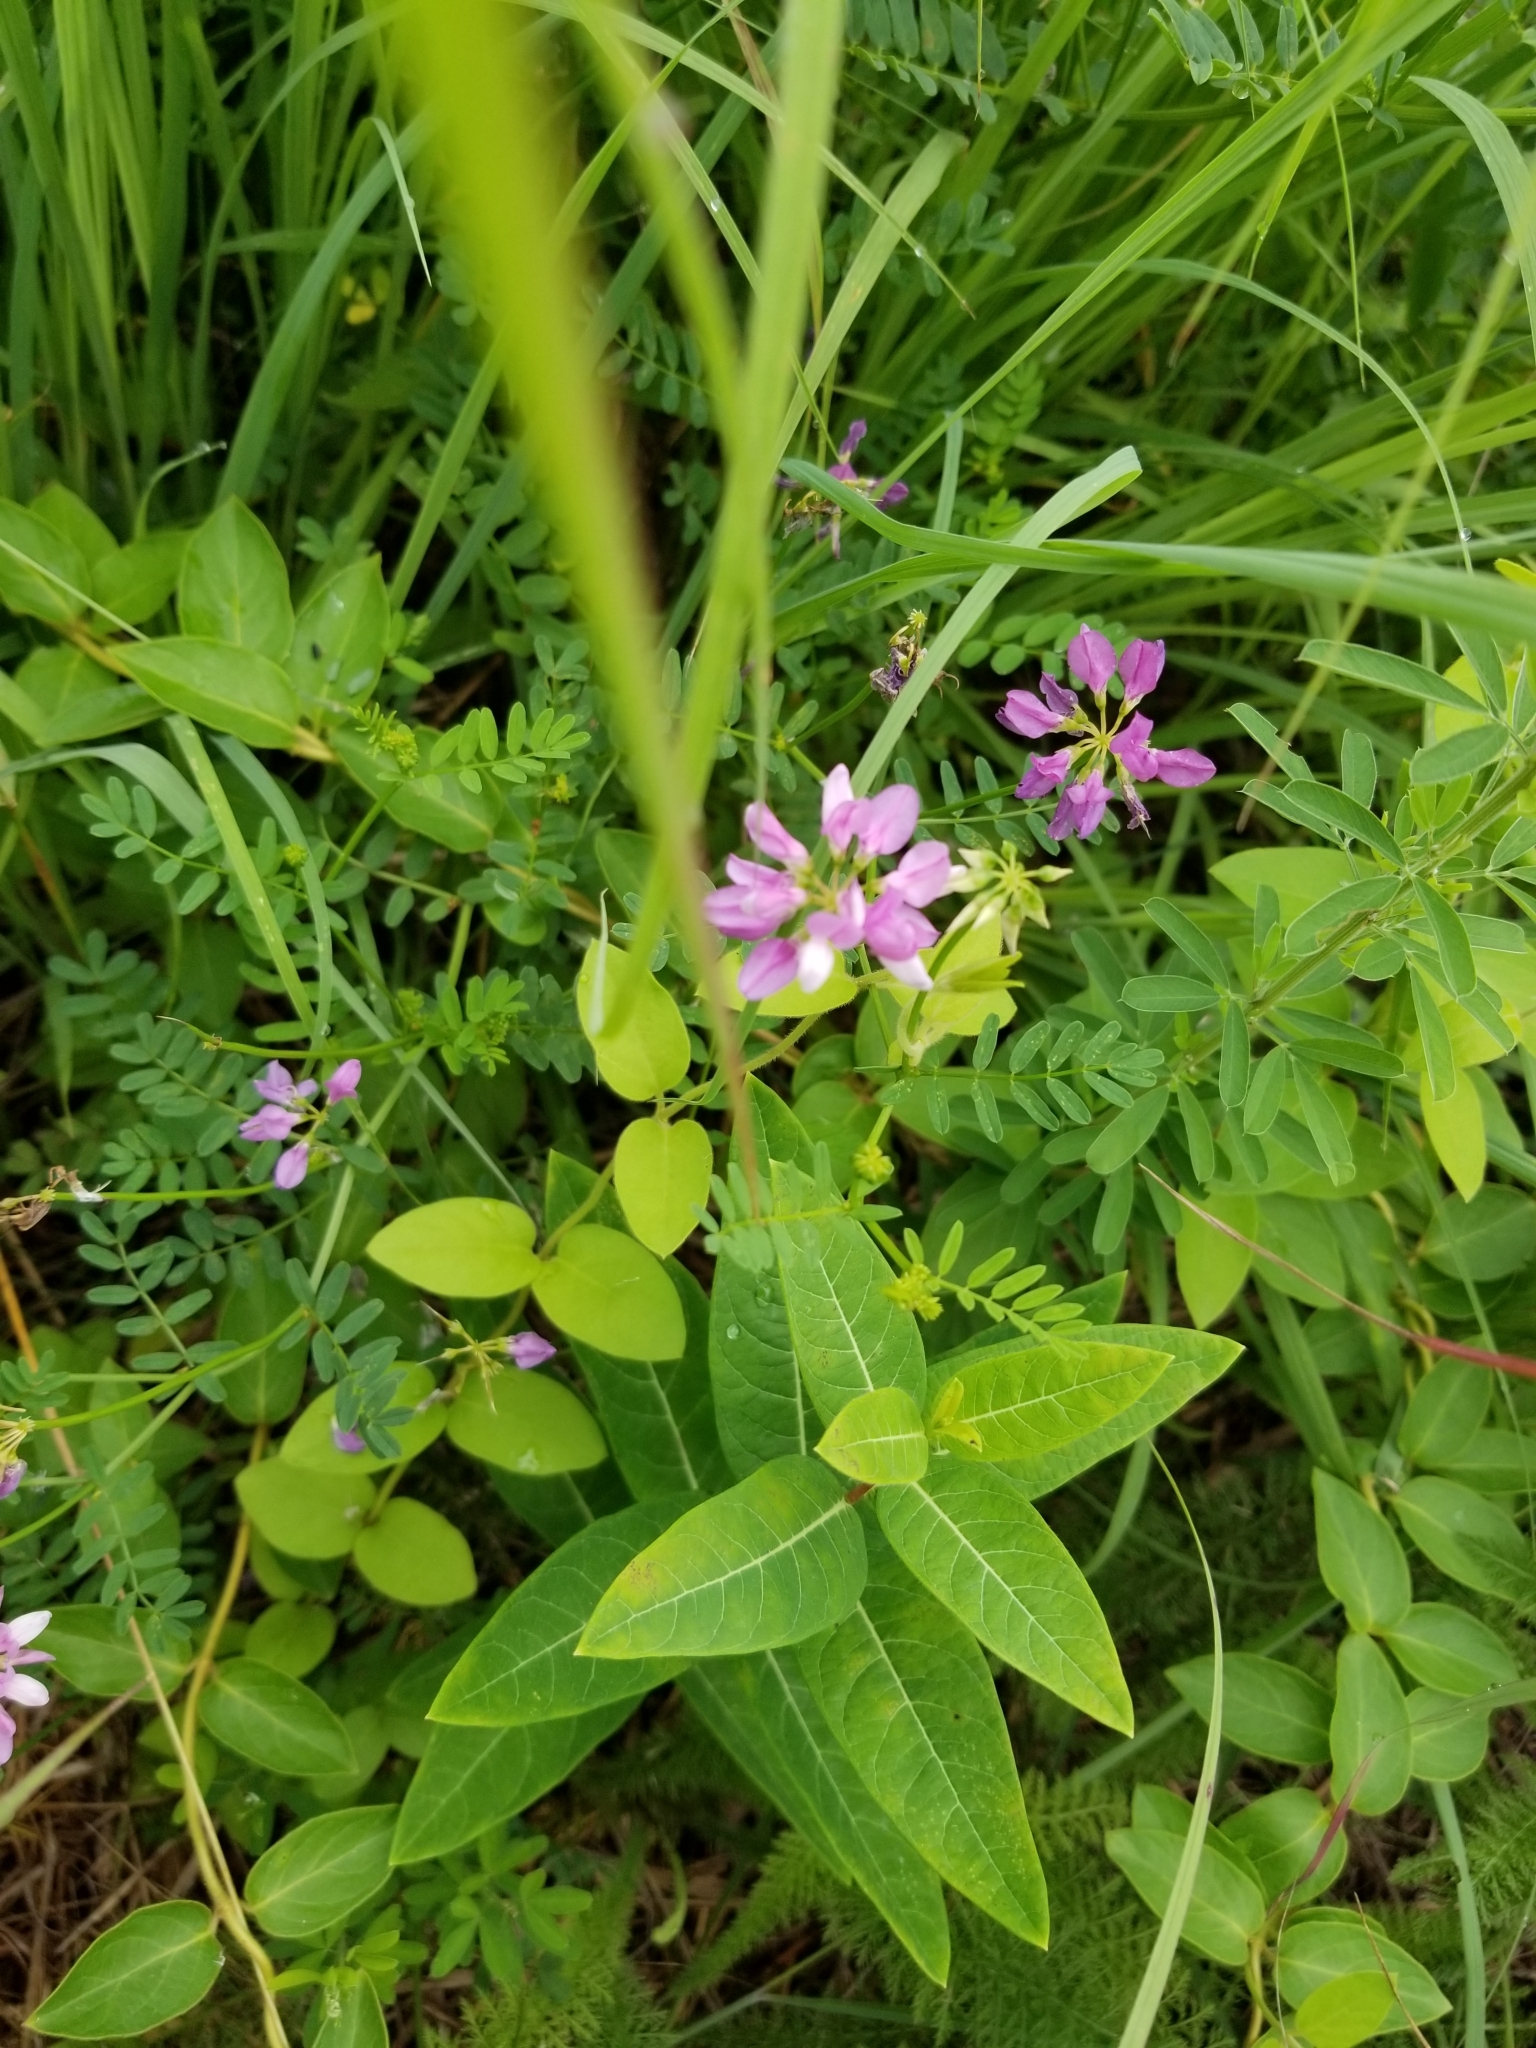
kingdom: Plantae
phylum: Tracheophyta
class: Magnoliopsida
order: Fabales
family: Fabaceae
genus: Coronilla
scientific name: Coronilla varia
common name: Crownvetch
